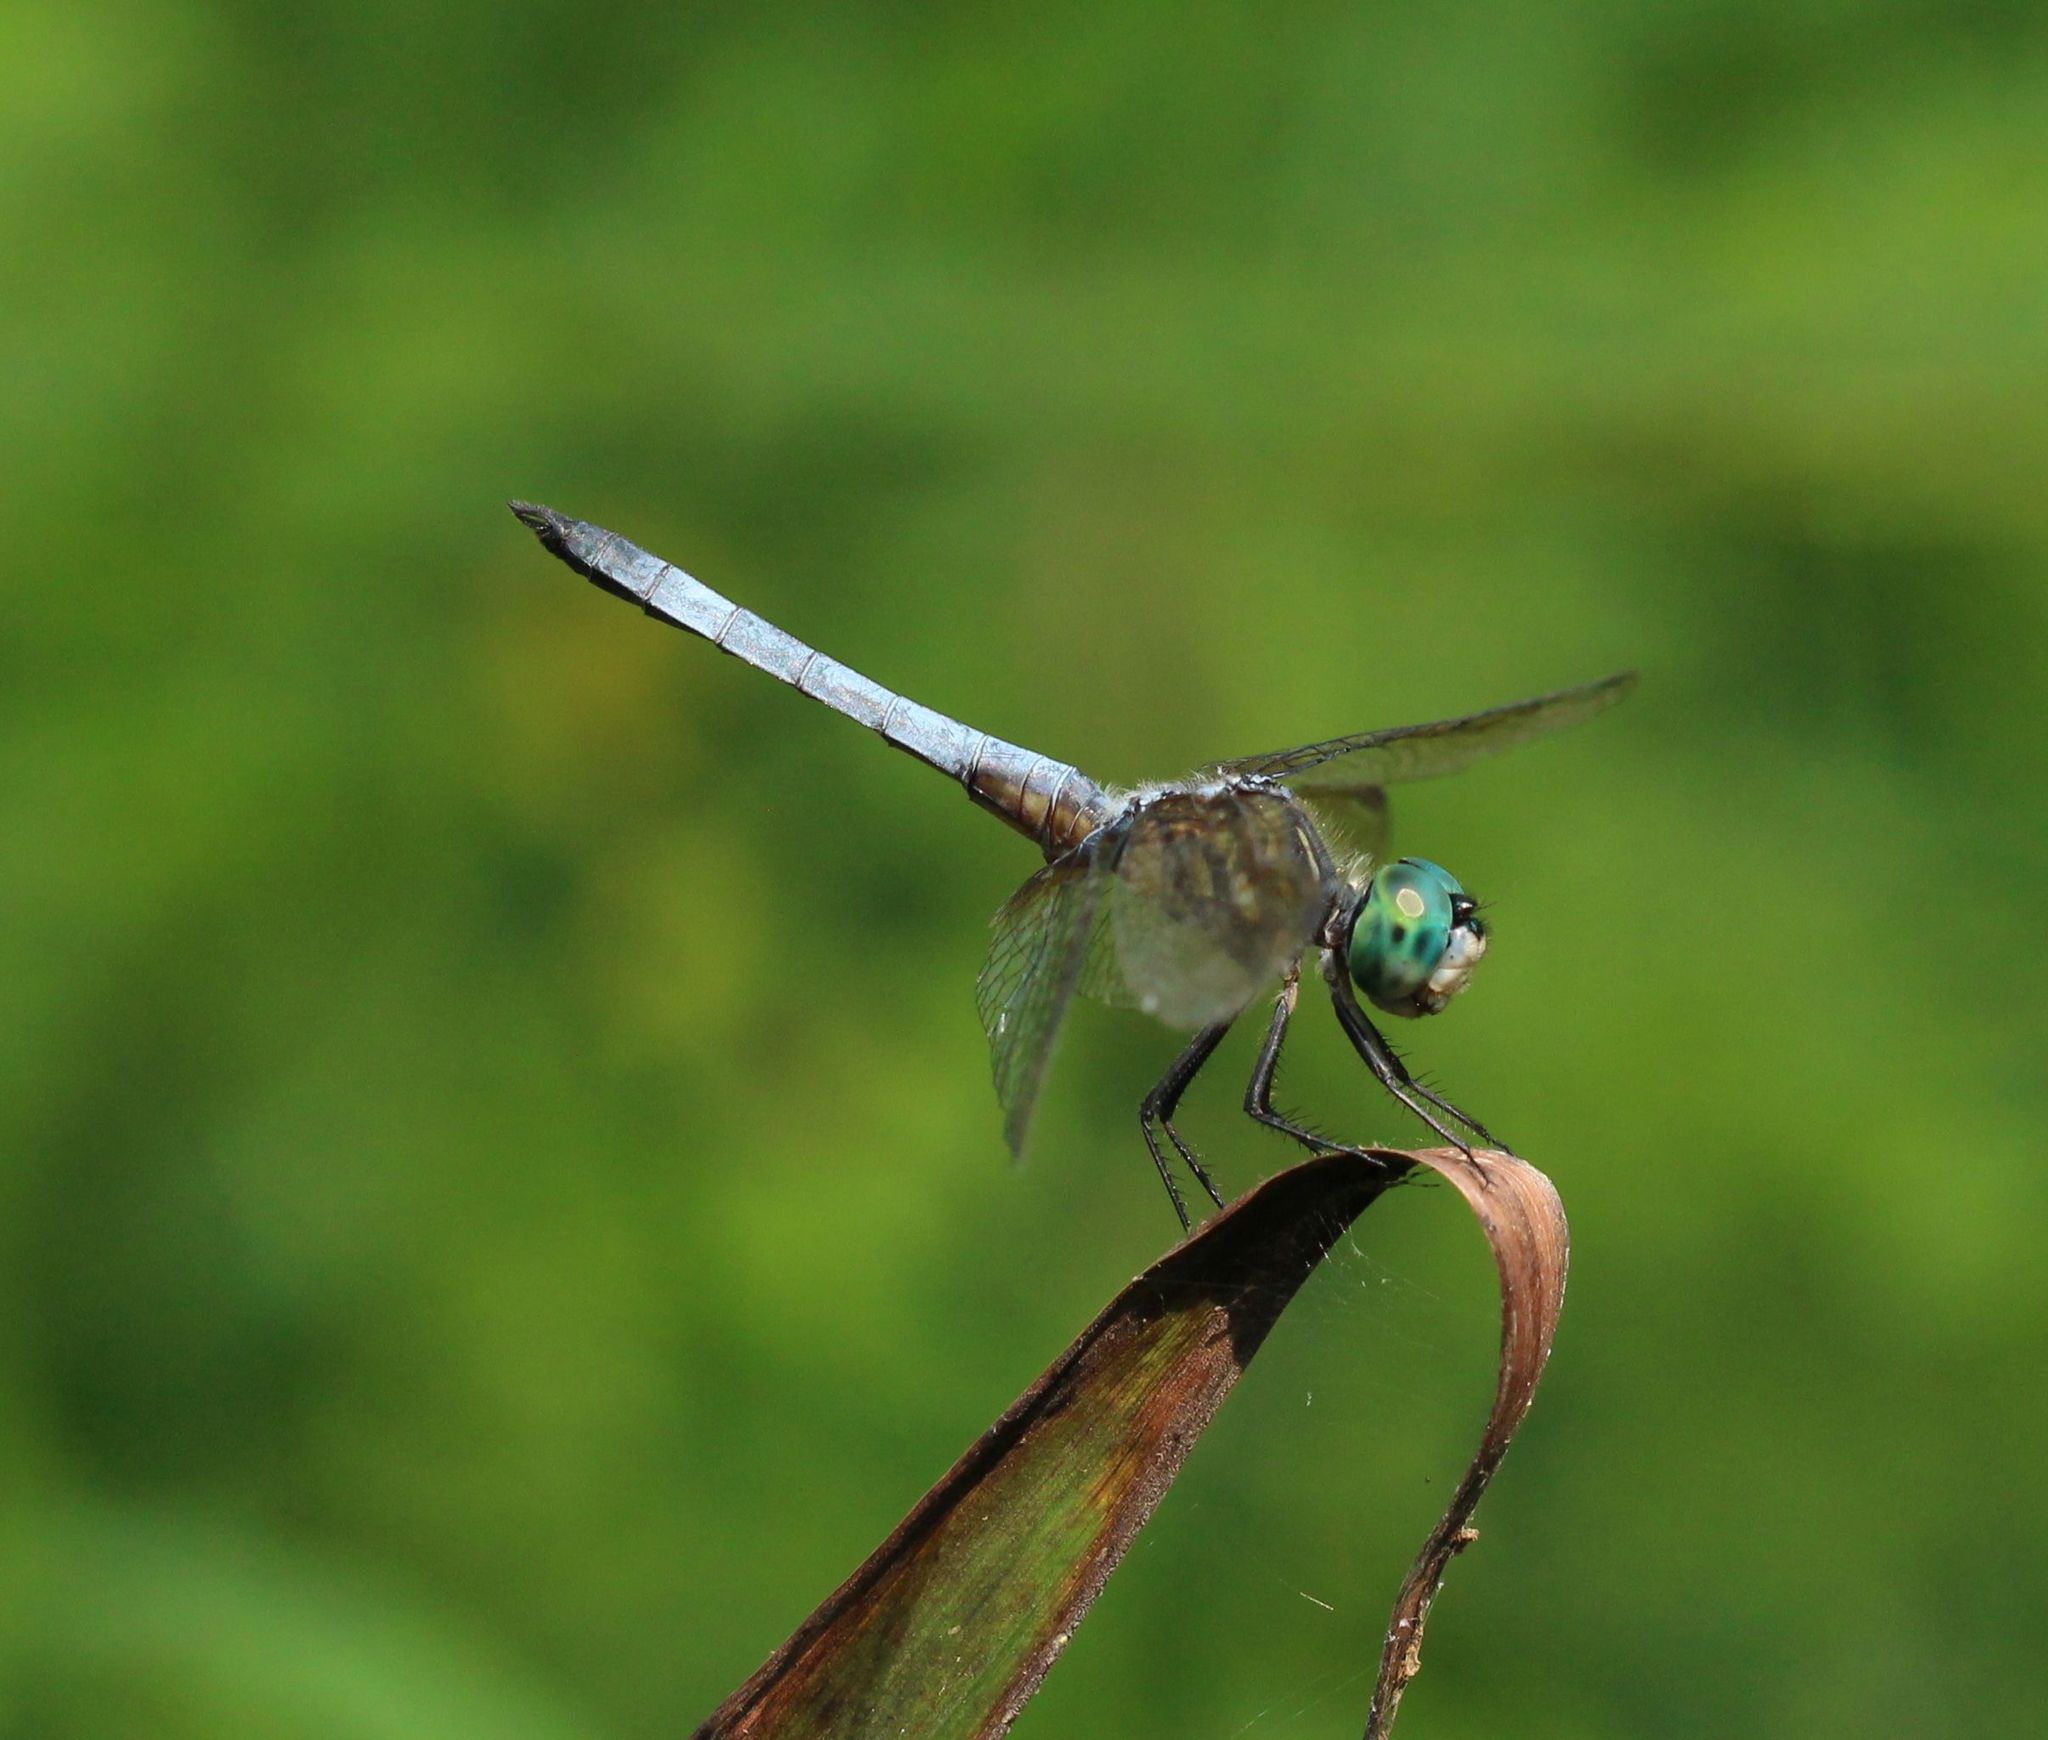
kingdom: Animalia
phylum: Arthropoda
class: Insecta
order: Odonata
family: Libellulidae
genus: Pachydiplax
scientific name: Pachydiplax longipennis
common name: Blue dasher
